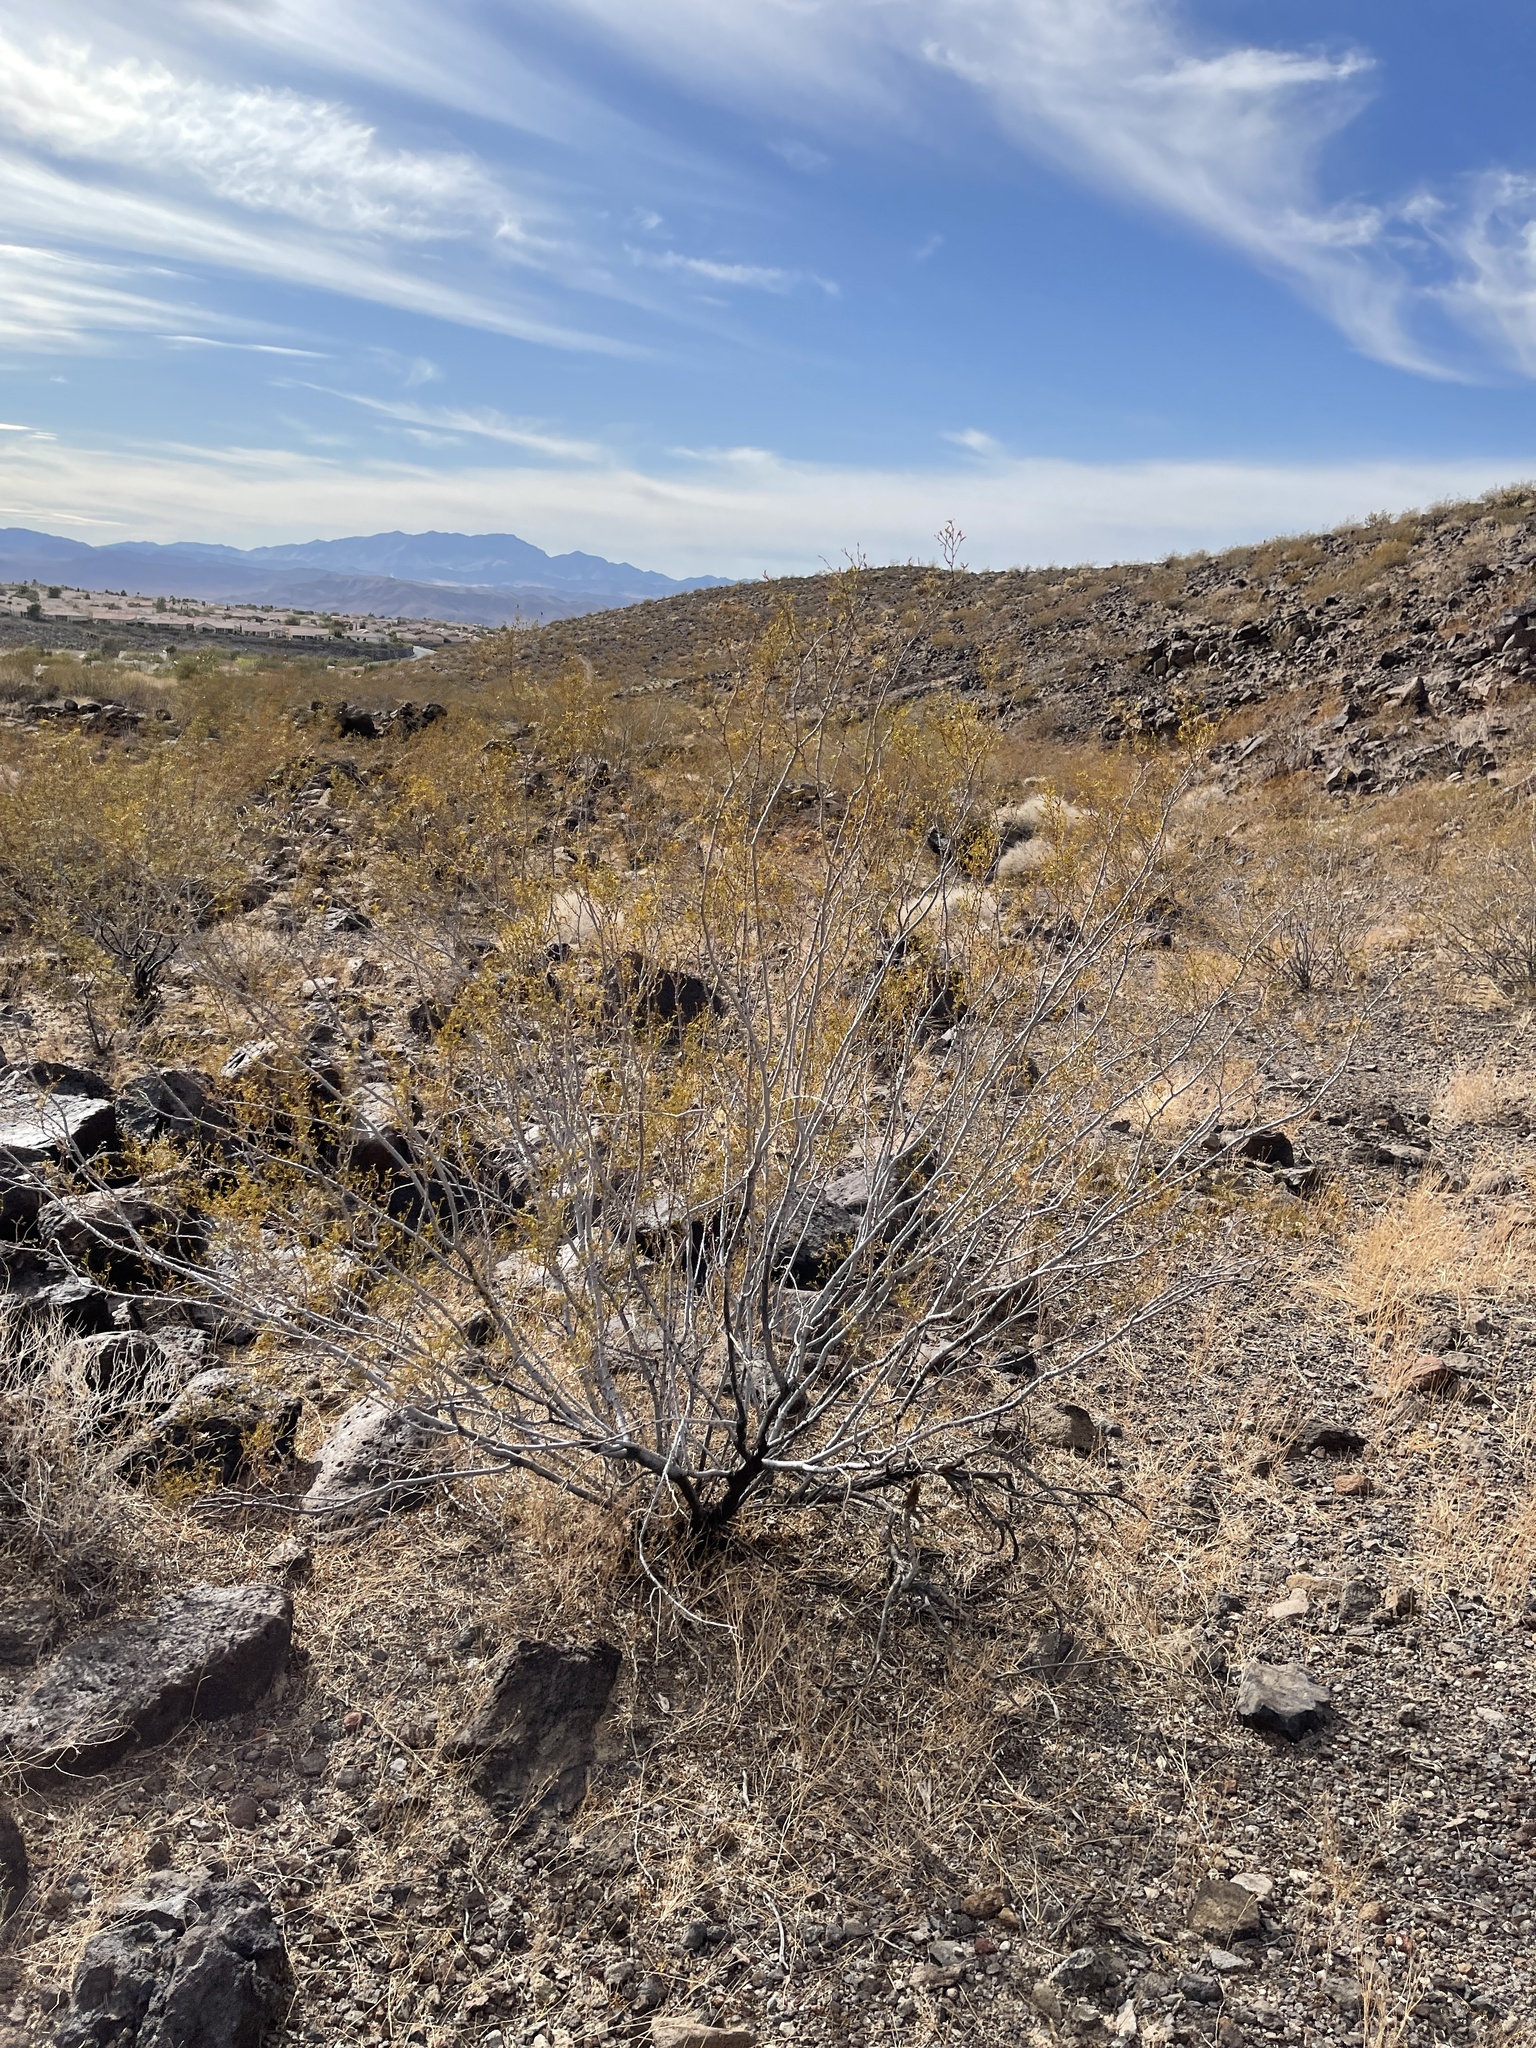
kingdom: Plantae
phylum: Tracheophyta
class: Magnoliopsida
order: Zygophyllales
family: Zygophyllaceae
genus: Larrea
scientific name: Larrea tridentata
